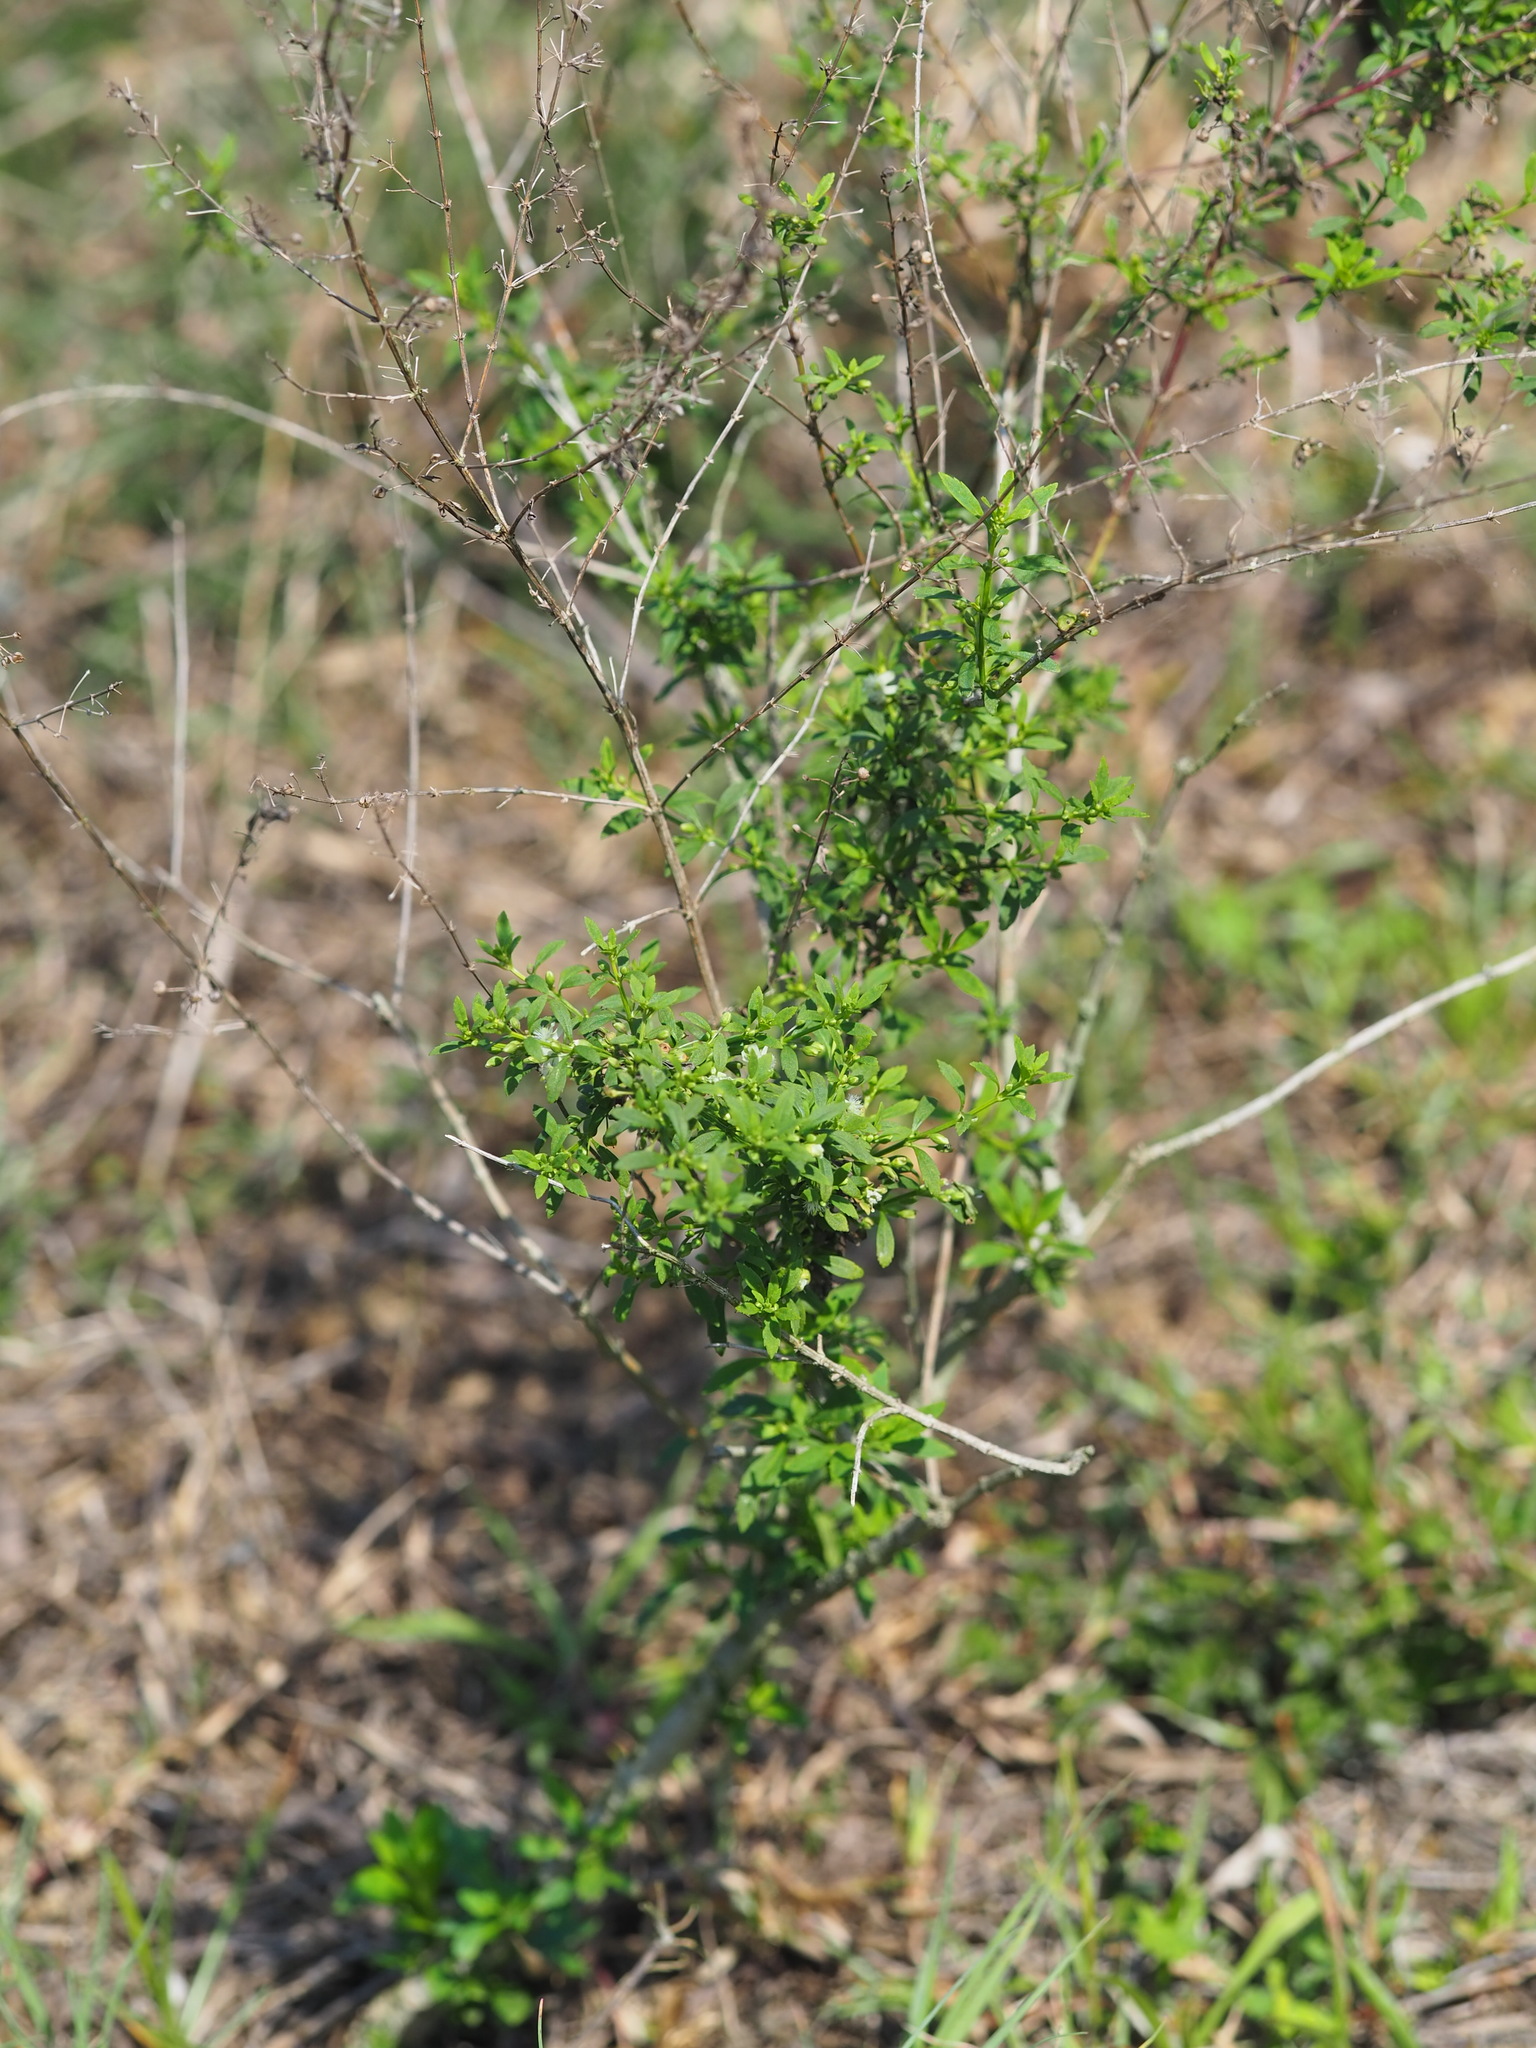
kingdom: Plantae
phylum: Tracheophyta
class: Magnoliopsida
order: Lamiales
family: Plantaginaceae
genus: Scoparia
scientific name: Scoparia dulcis
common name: Scoparia-weed
